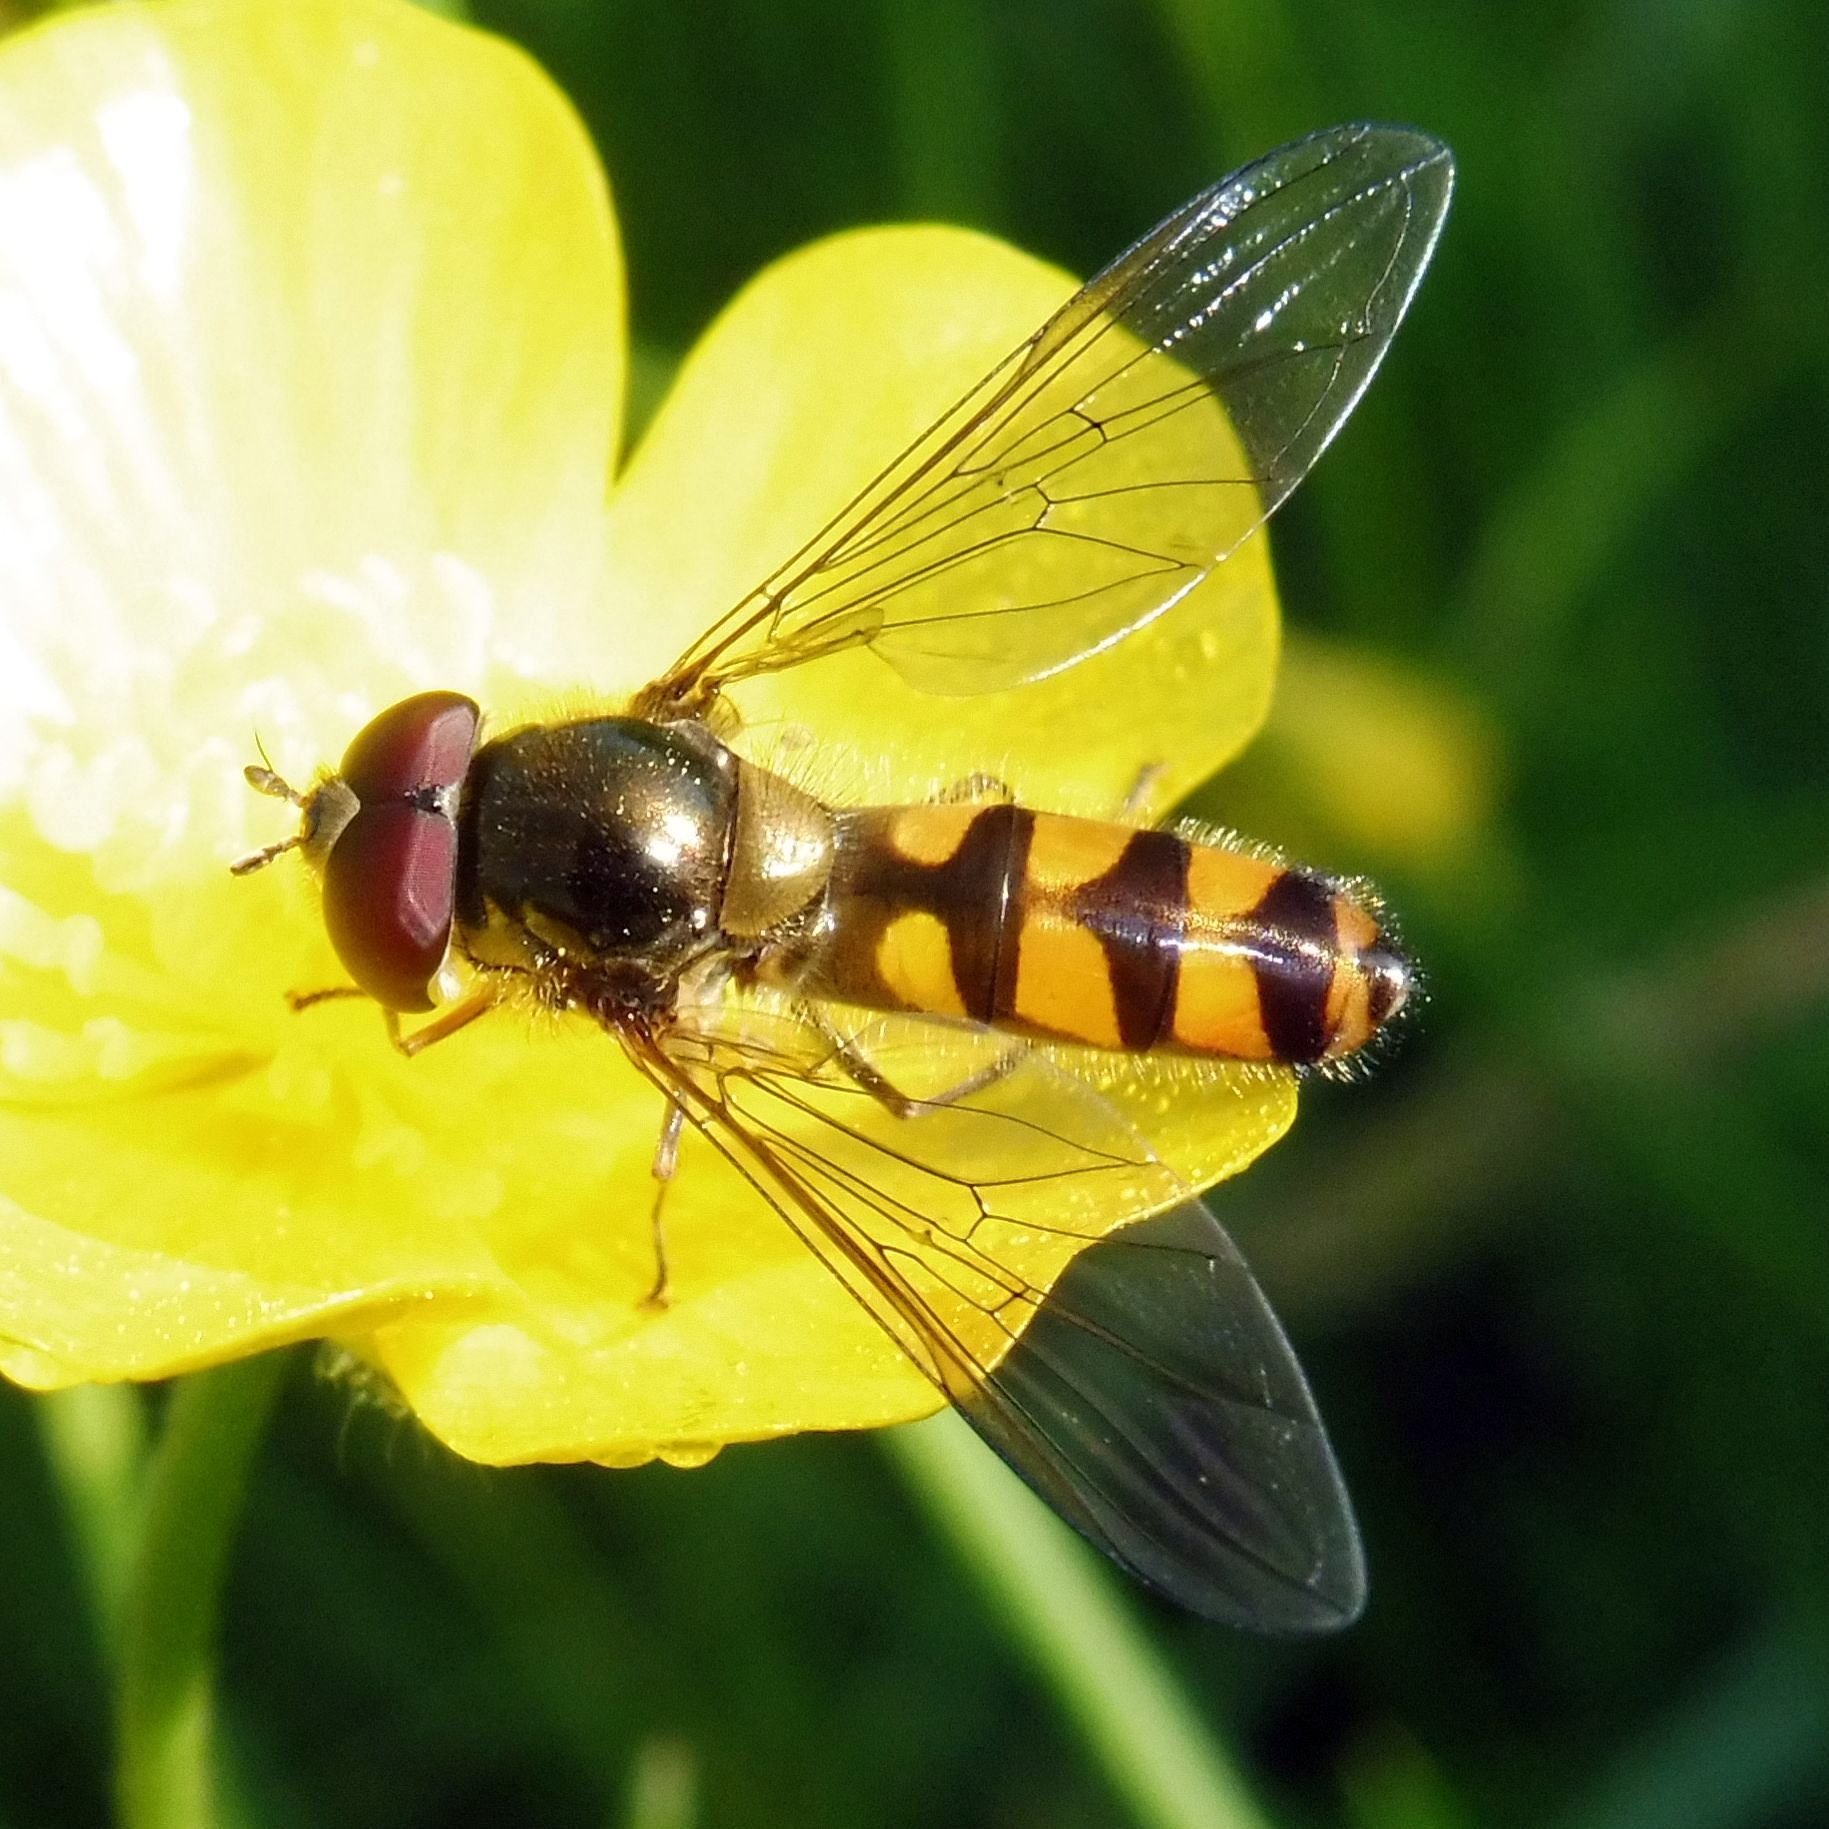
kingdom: Animalia
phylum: Arthropoda
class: Insecta
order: Diptera
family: Syrphidae
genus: Meliscaeva
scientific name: Meliscaeva auricollis
